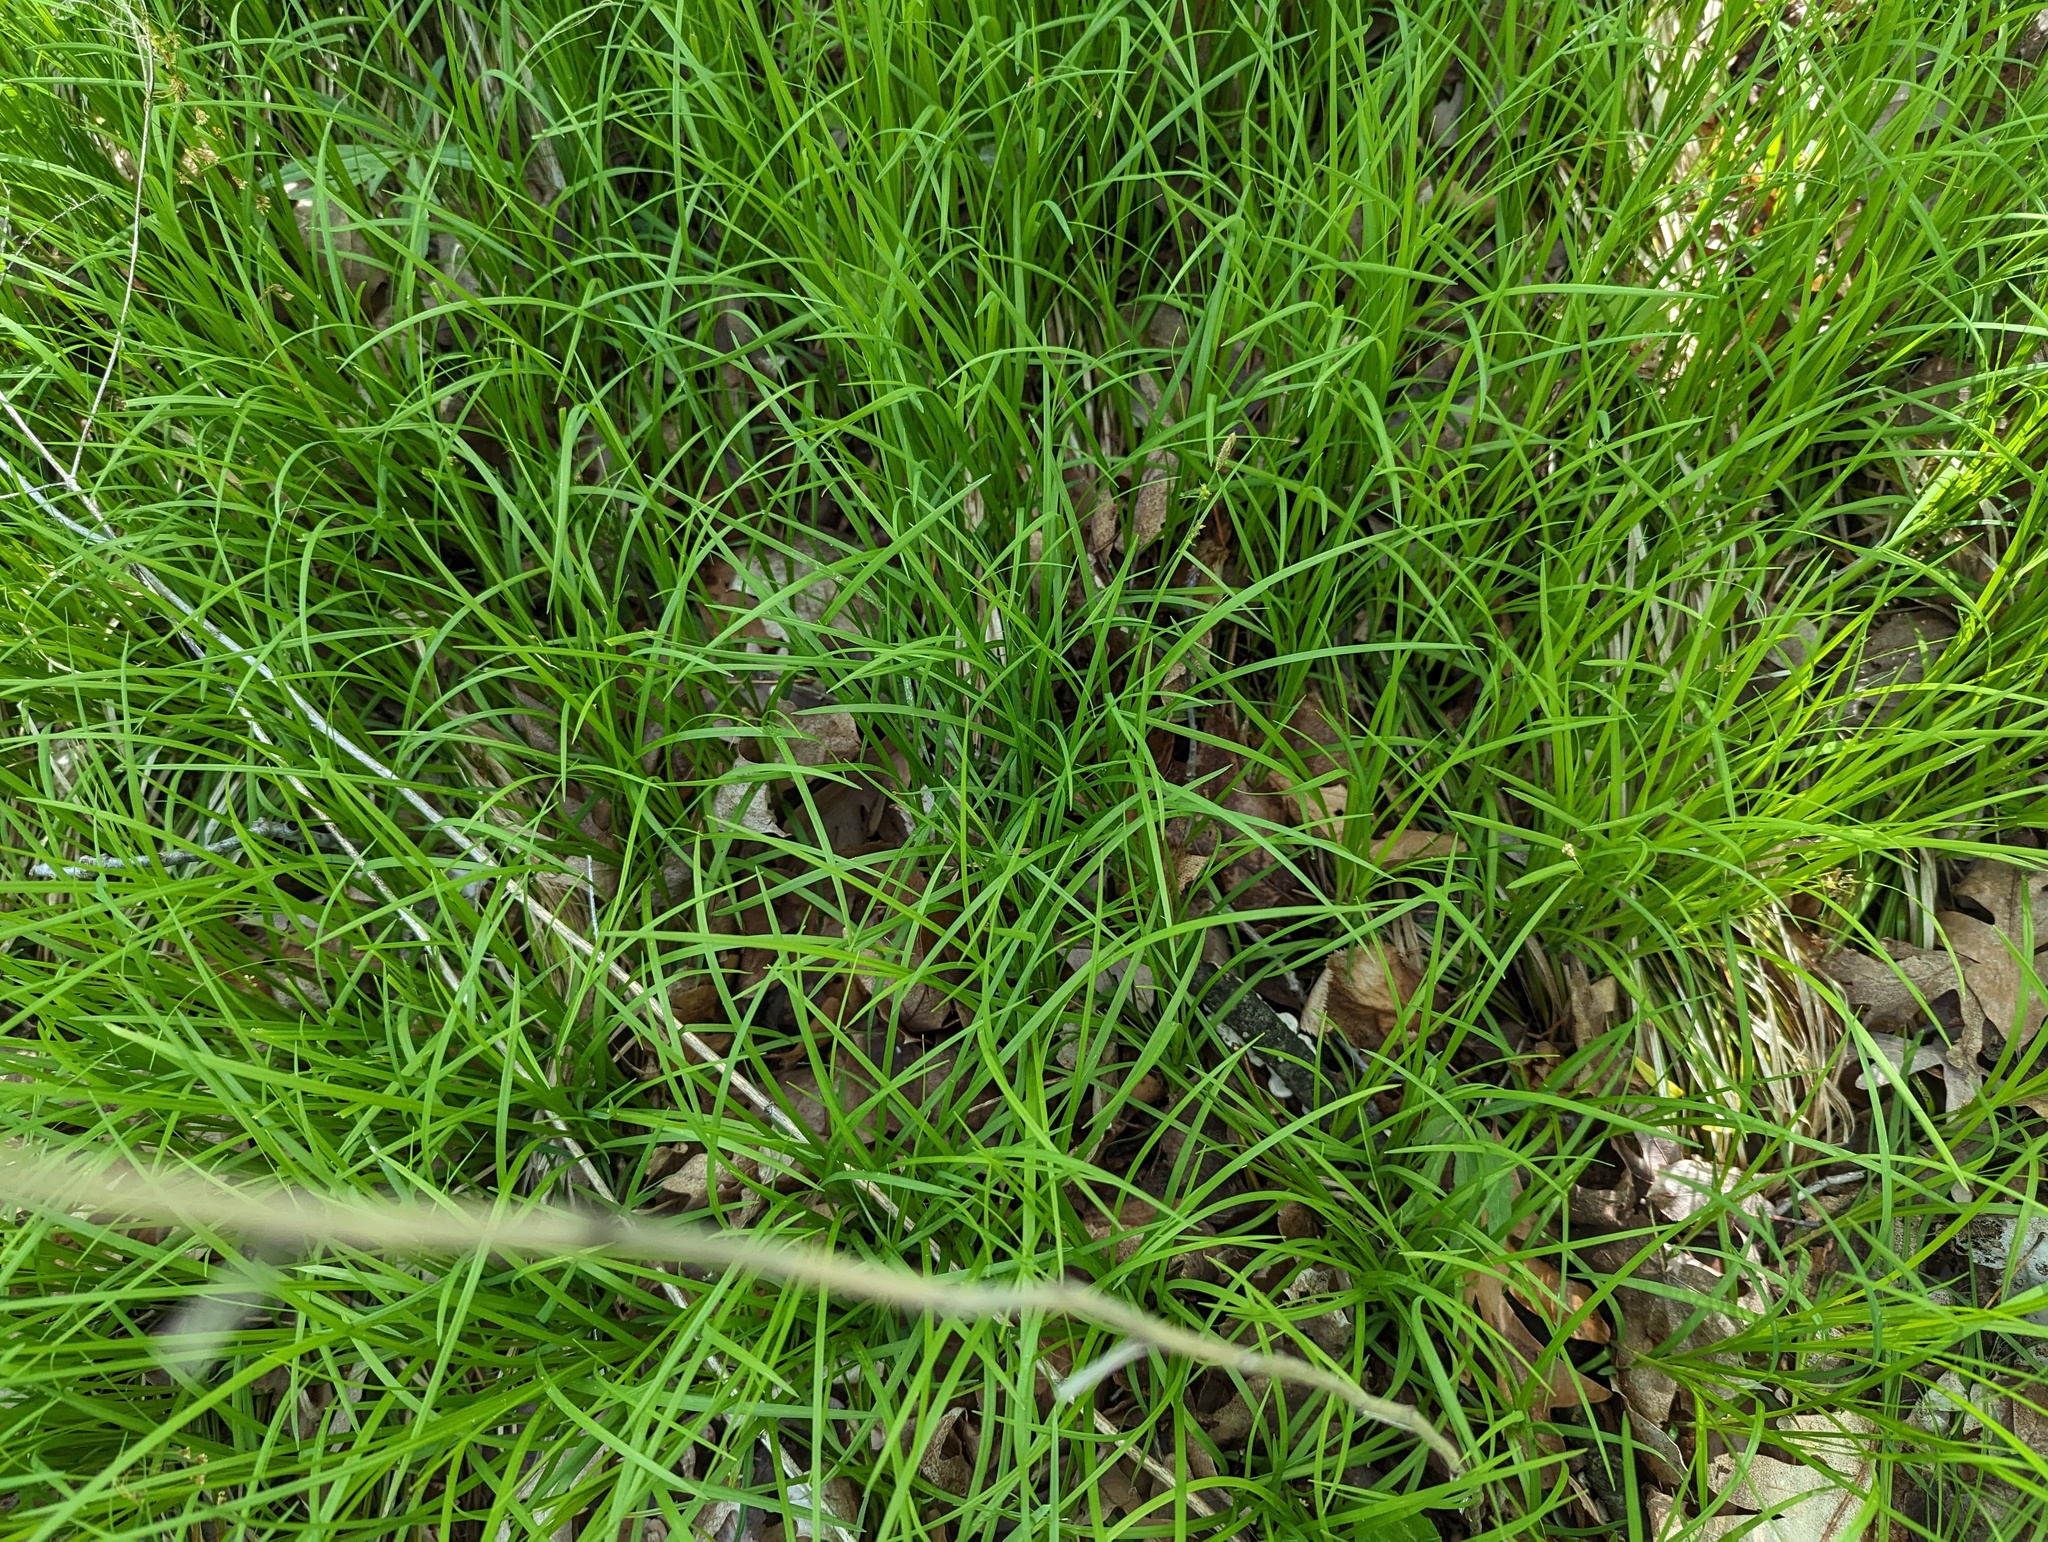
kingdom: Plantae
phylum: Tracheophyta
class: Liliopsida
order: Poales
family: Cyperaceae
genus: Carex
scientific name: Carex woodii
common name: Wood's sedge
